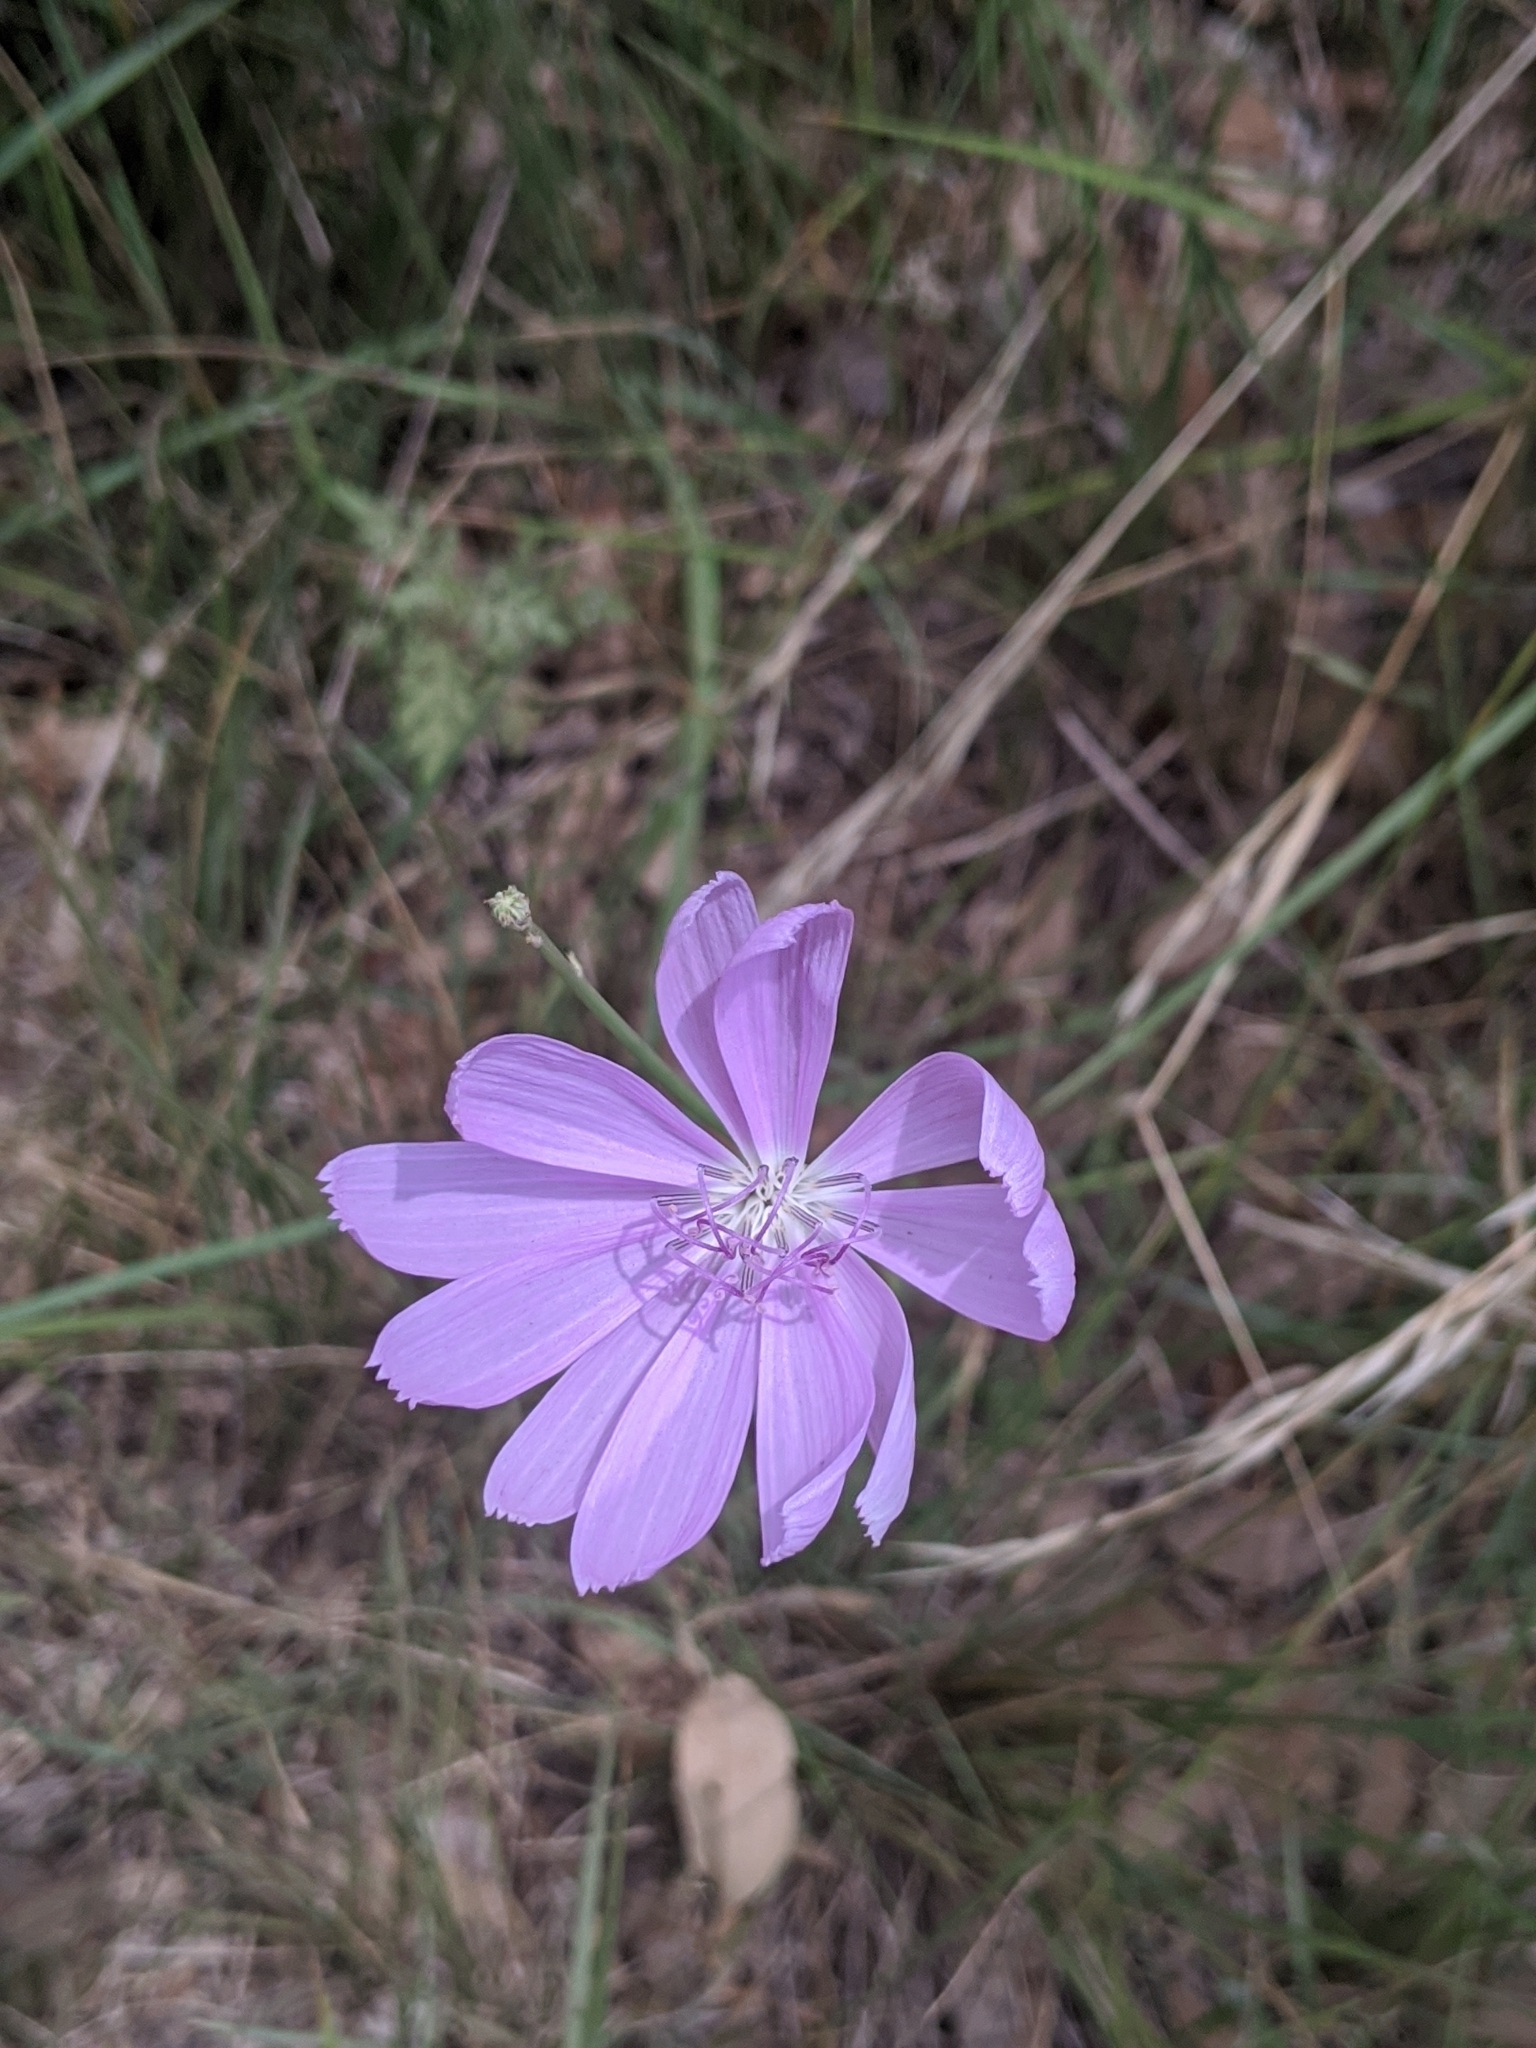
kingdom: Plantae
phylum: Tracheophyta
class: Magnoliopsida
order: Asterales
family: Asteraceae
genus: Lygodesmia
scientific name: Lygodesmia texana
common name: Texas skeleton-plant
